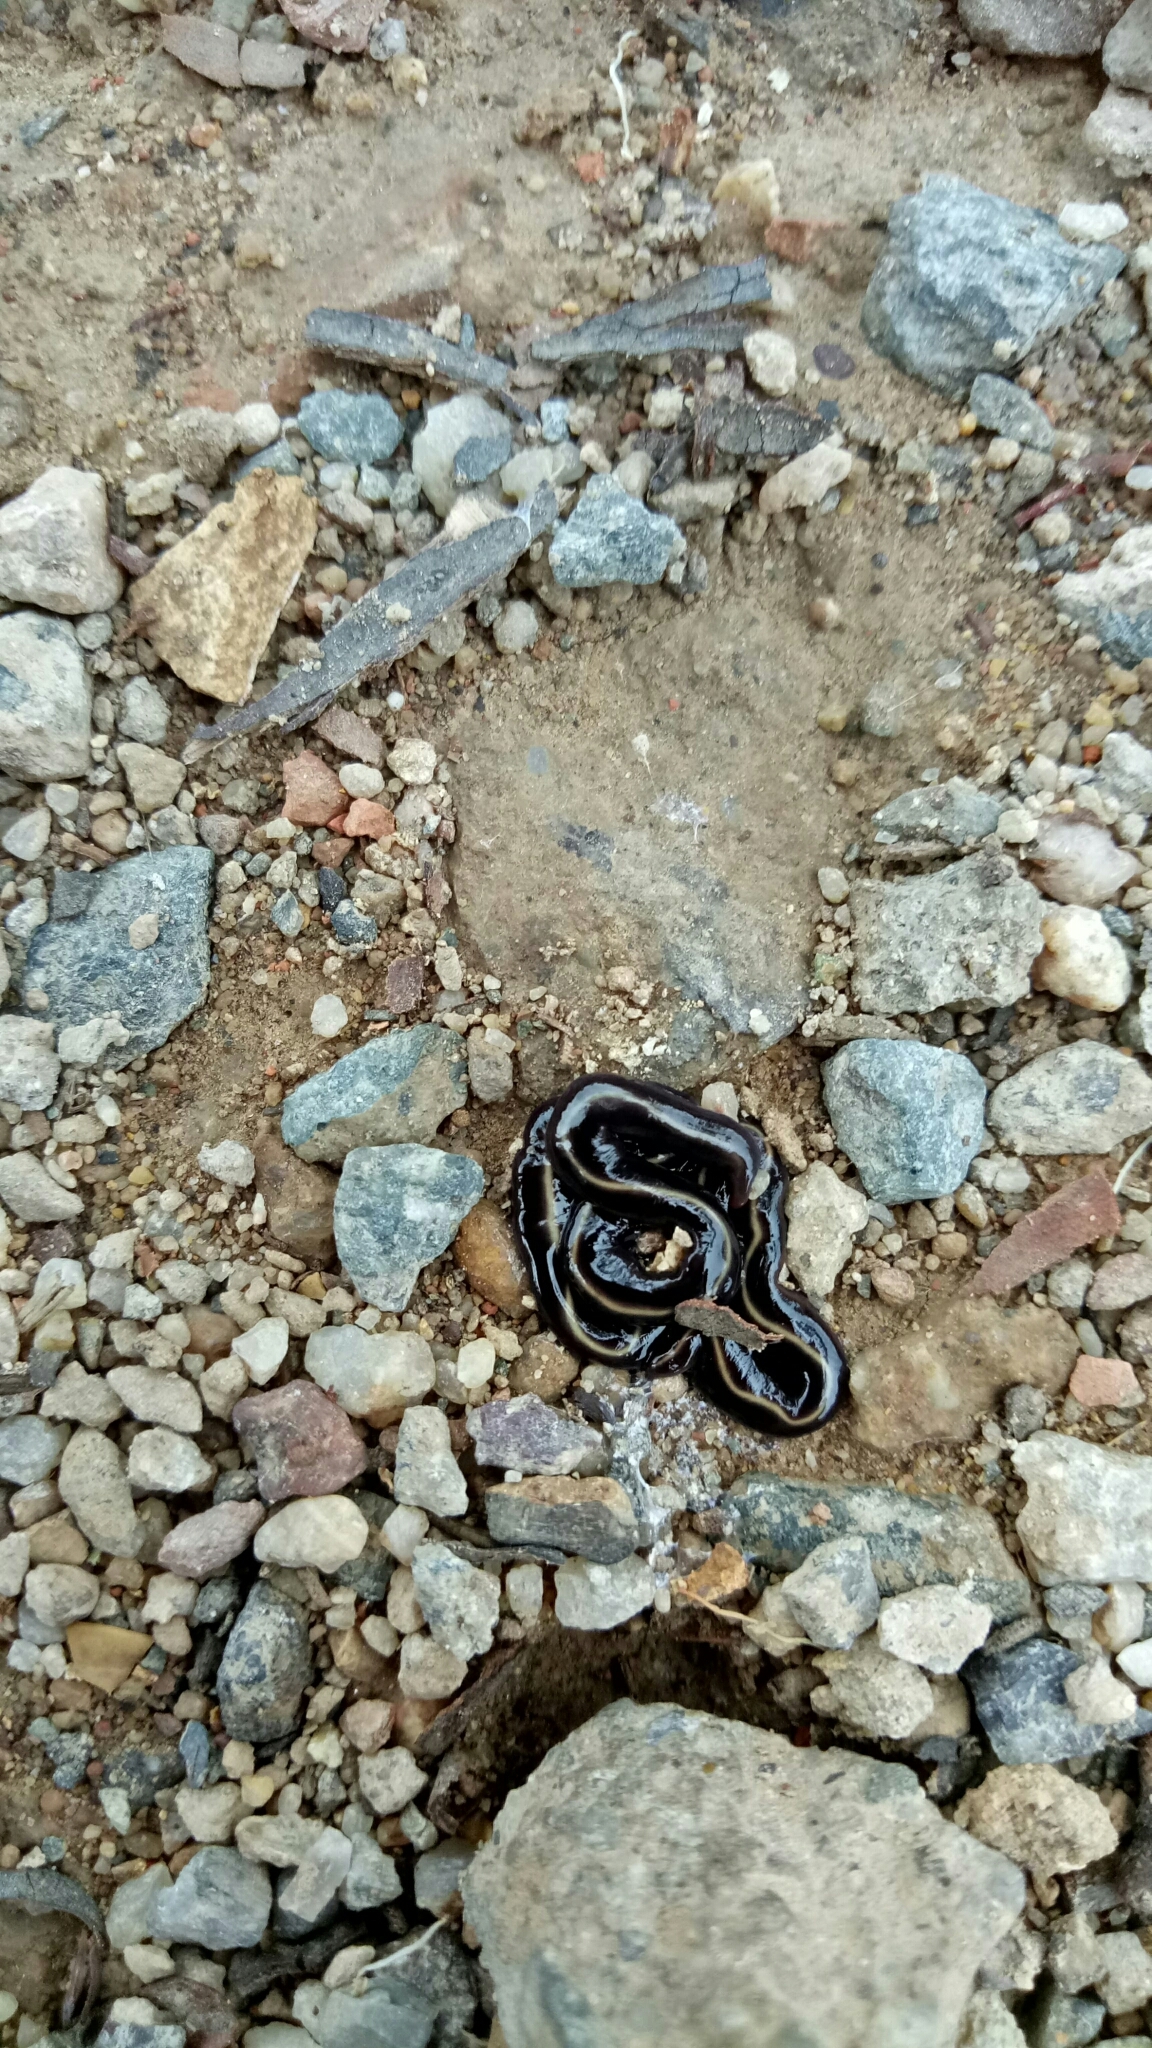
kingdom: Animalia
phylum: Platyhelminthes
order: Tricladida
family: Geoplanidae
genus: Caenoplana
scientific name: Caenoplana coerulea
